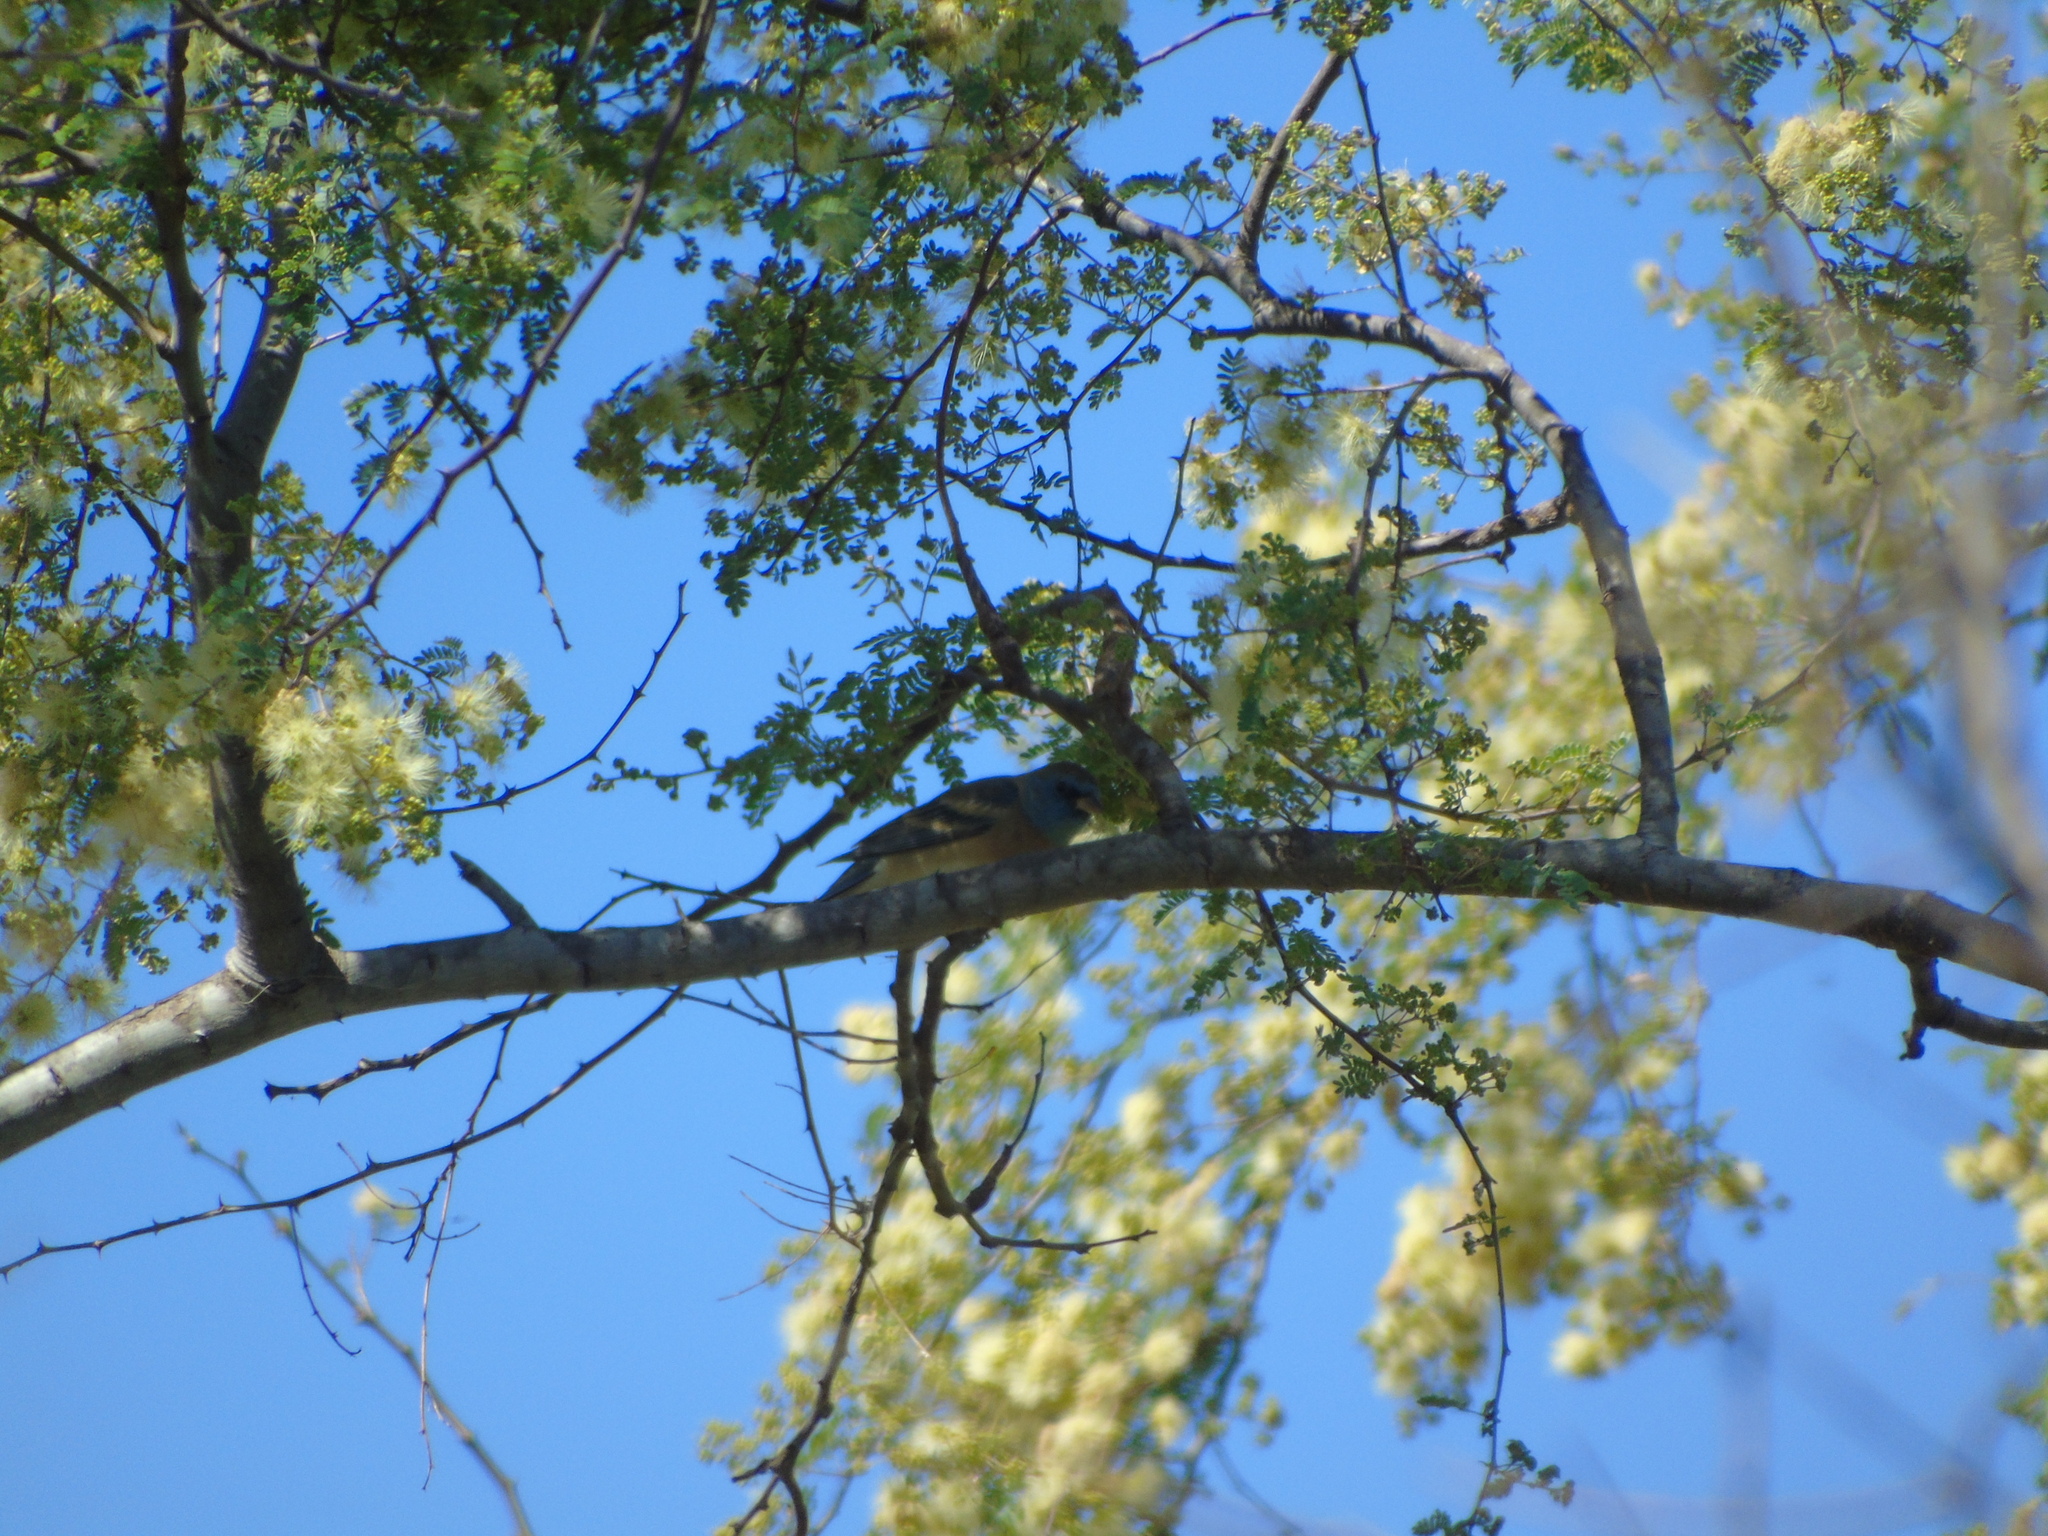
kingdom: Animalia
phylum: Chordata
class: Aves
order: Passeriformes
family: Cardinalidae
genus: Passerina
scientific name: Passerina amoena
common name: Lazuli bunting
